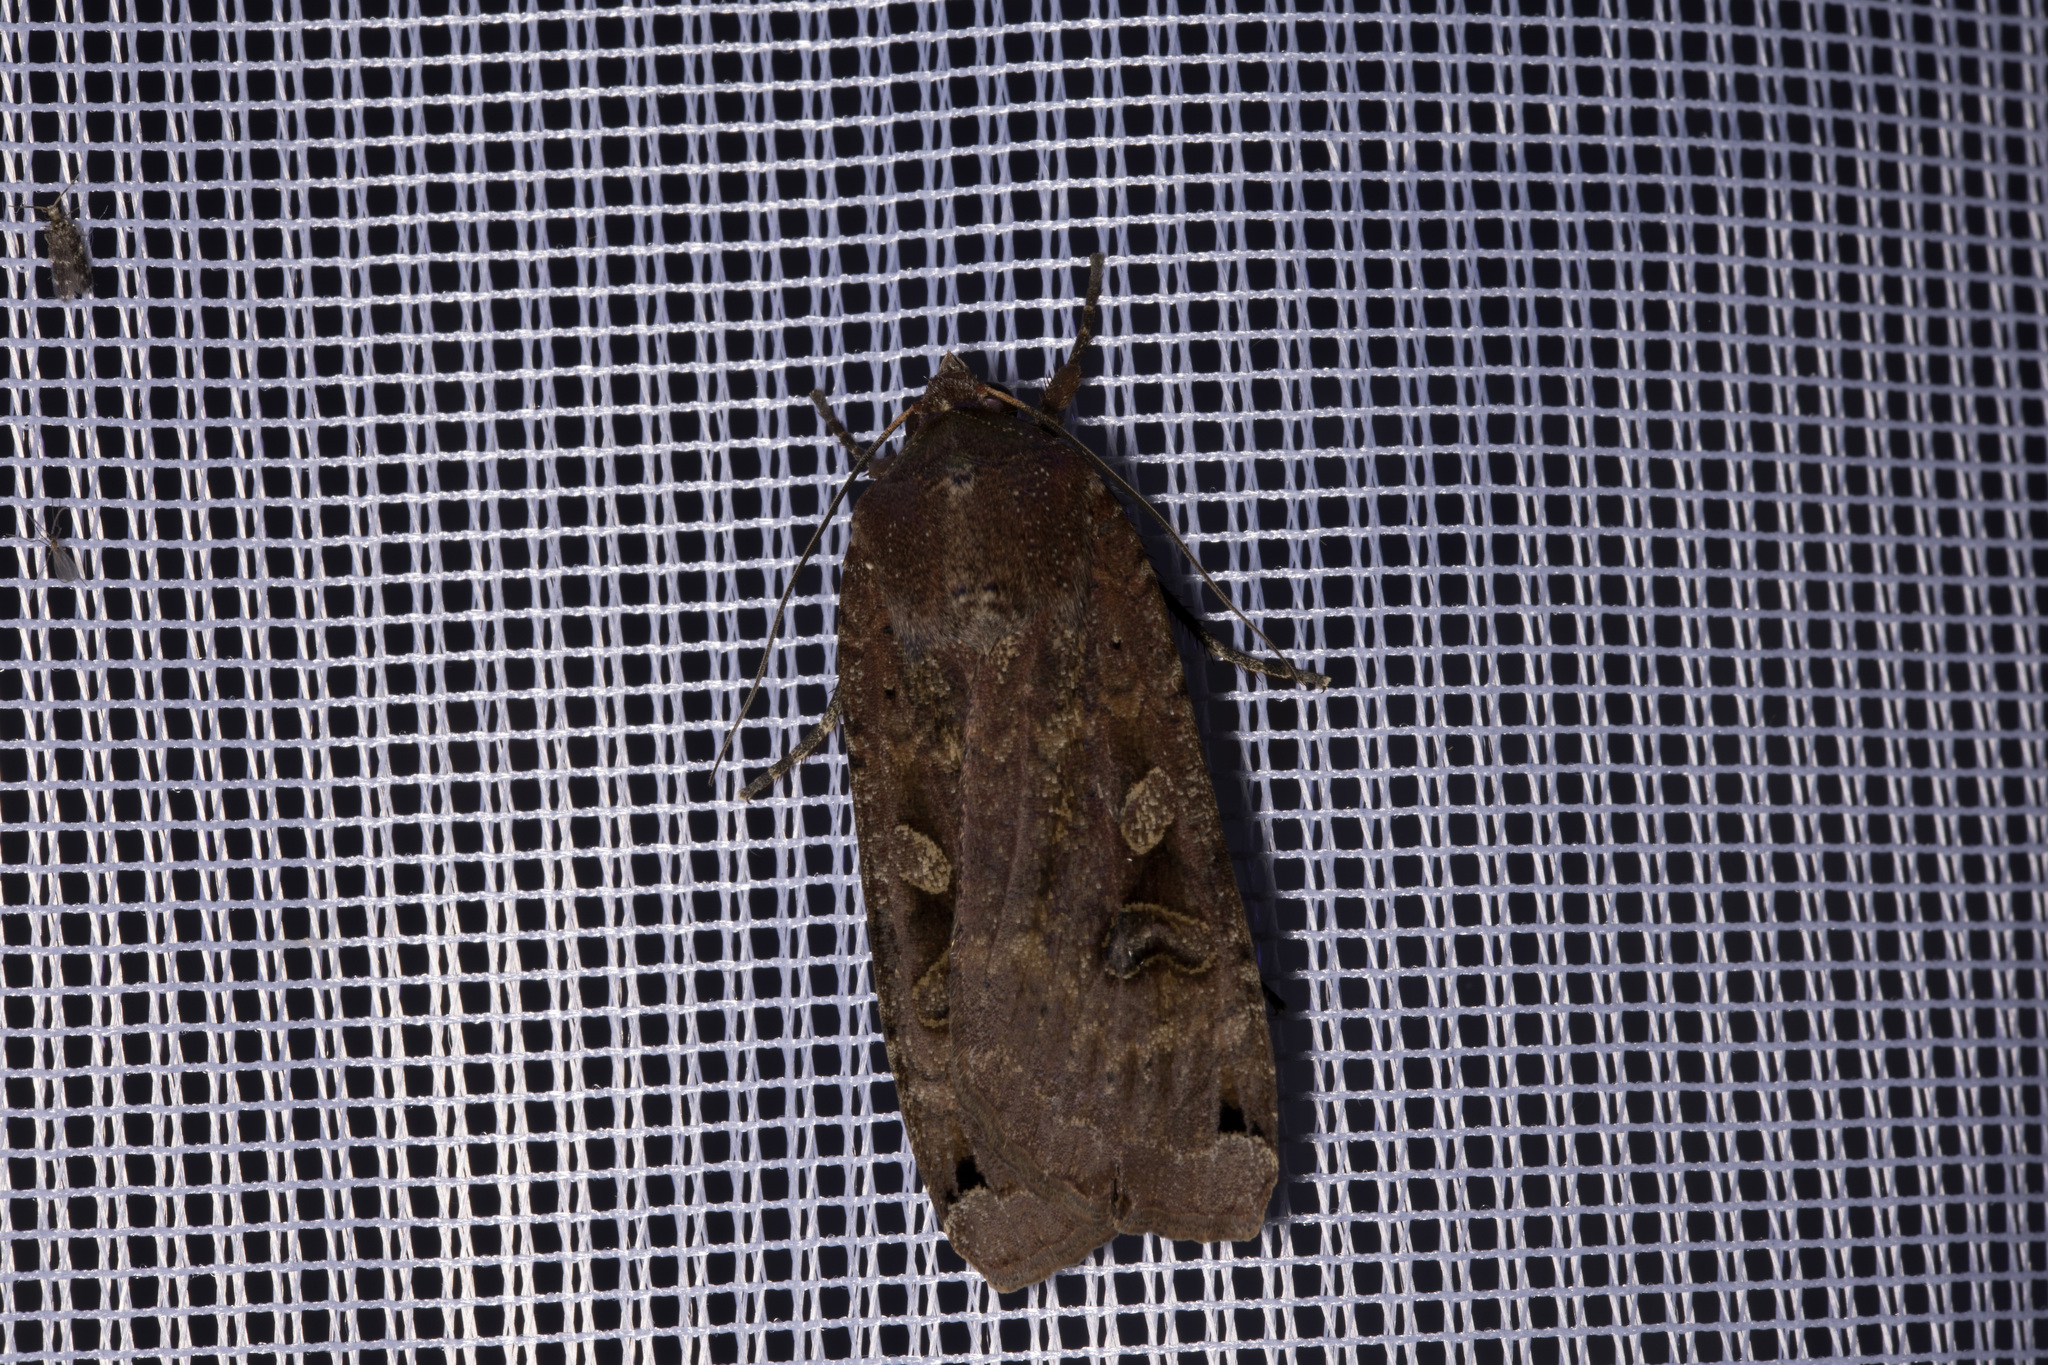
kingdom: Animalia
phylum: Arthropoda
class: Insecta
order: Lepidoptera
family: Noctuidae
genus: Noctua
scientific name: Noctua pronuba
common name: Large yellow underwing
